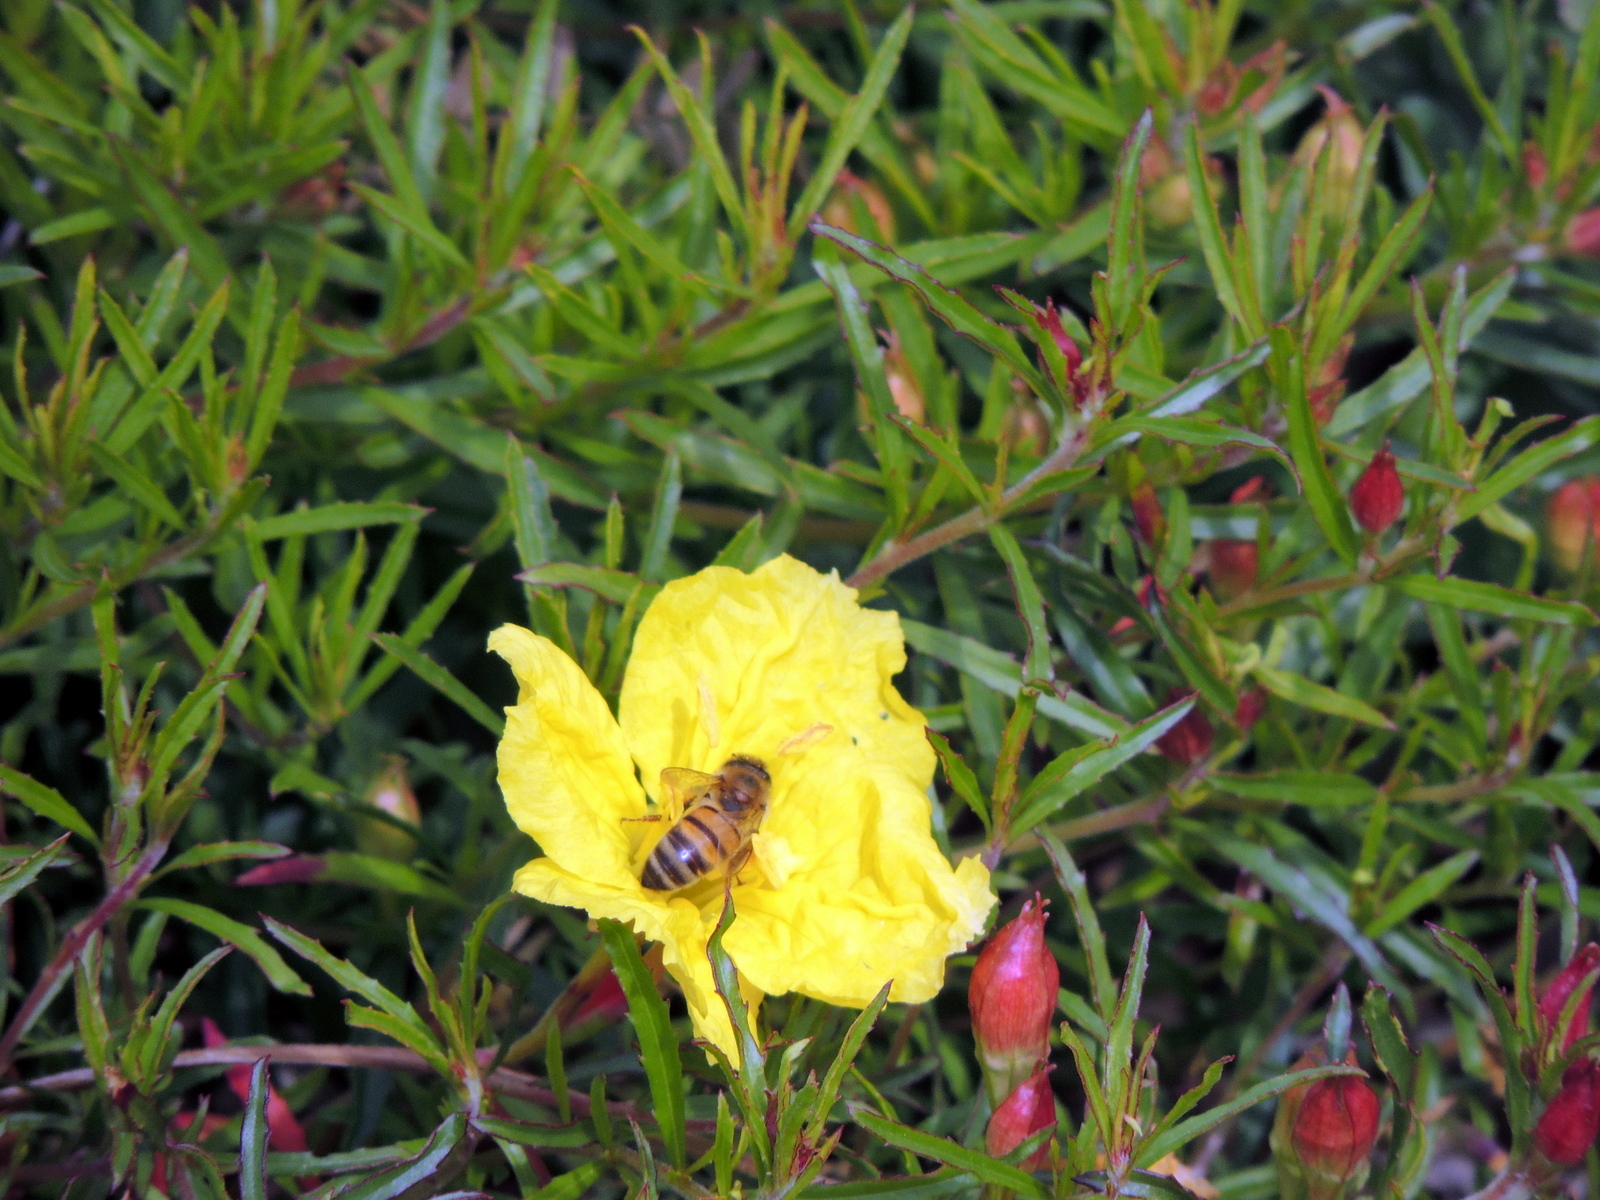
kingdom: Animalia
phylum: Arthropoda
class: Insecta
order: Hymenoptera
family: Apidae
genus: Apis
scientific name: Apis mellifera
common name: Honey bee
